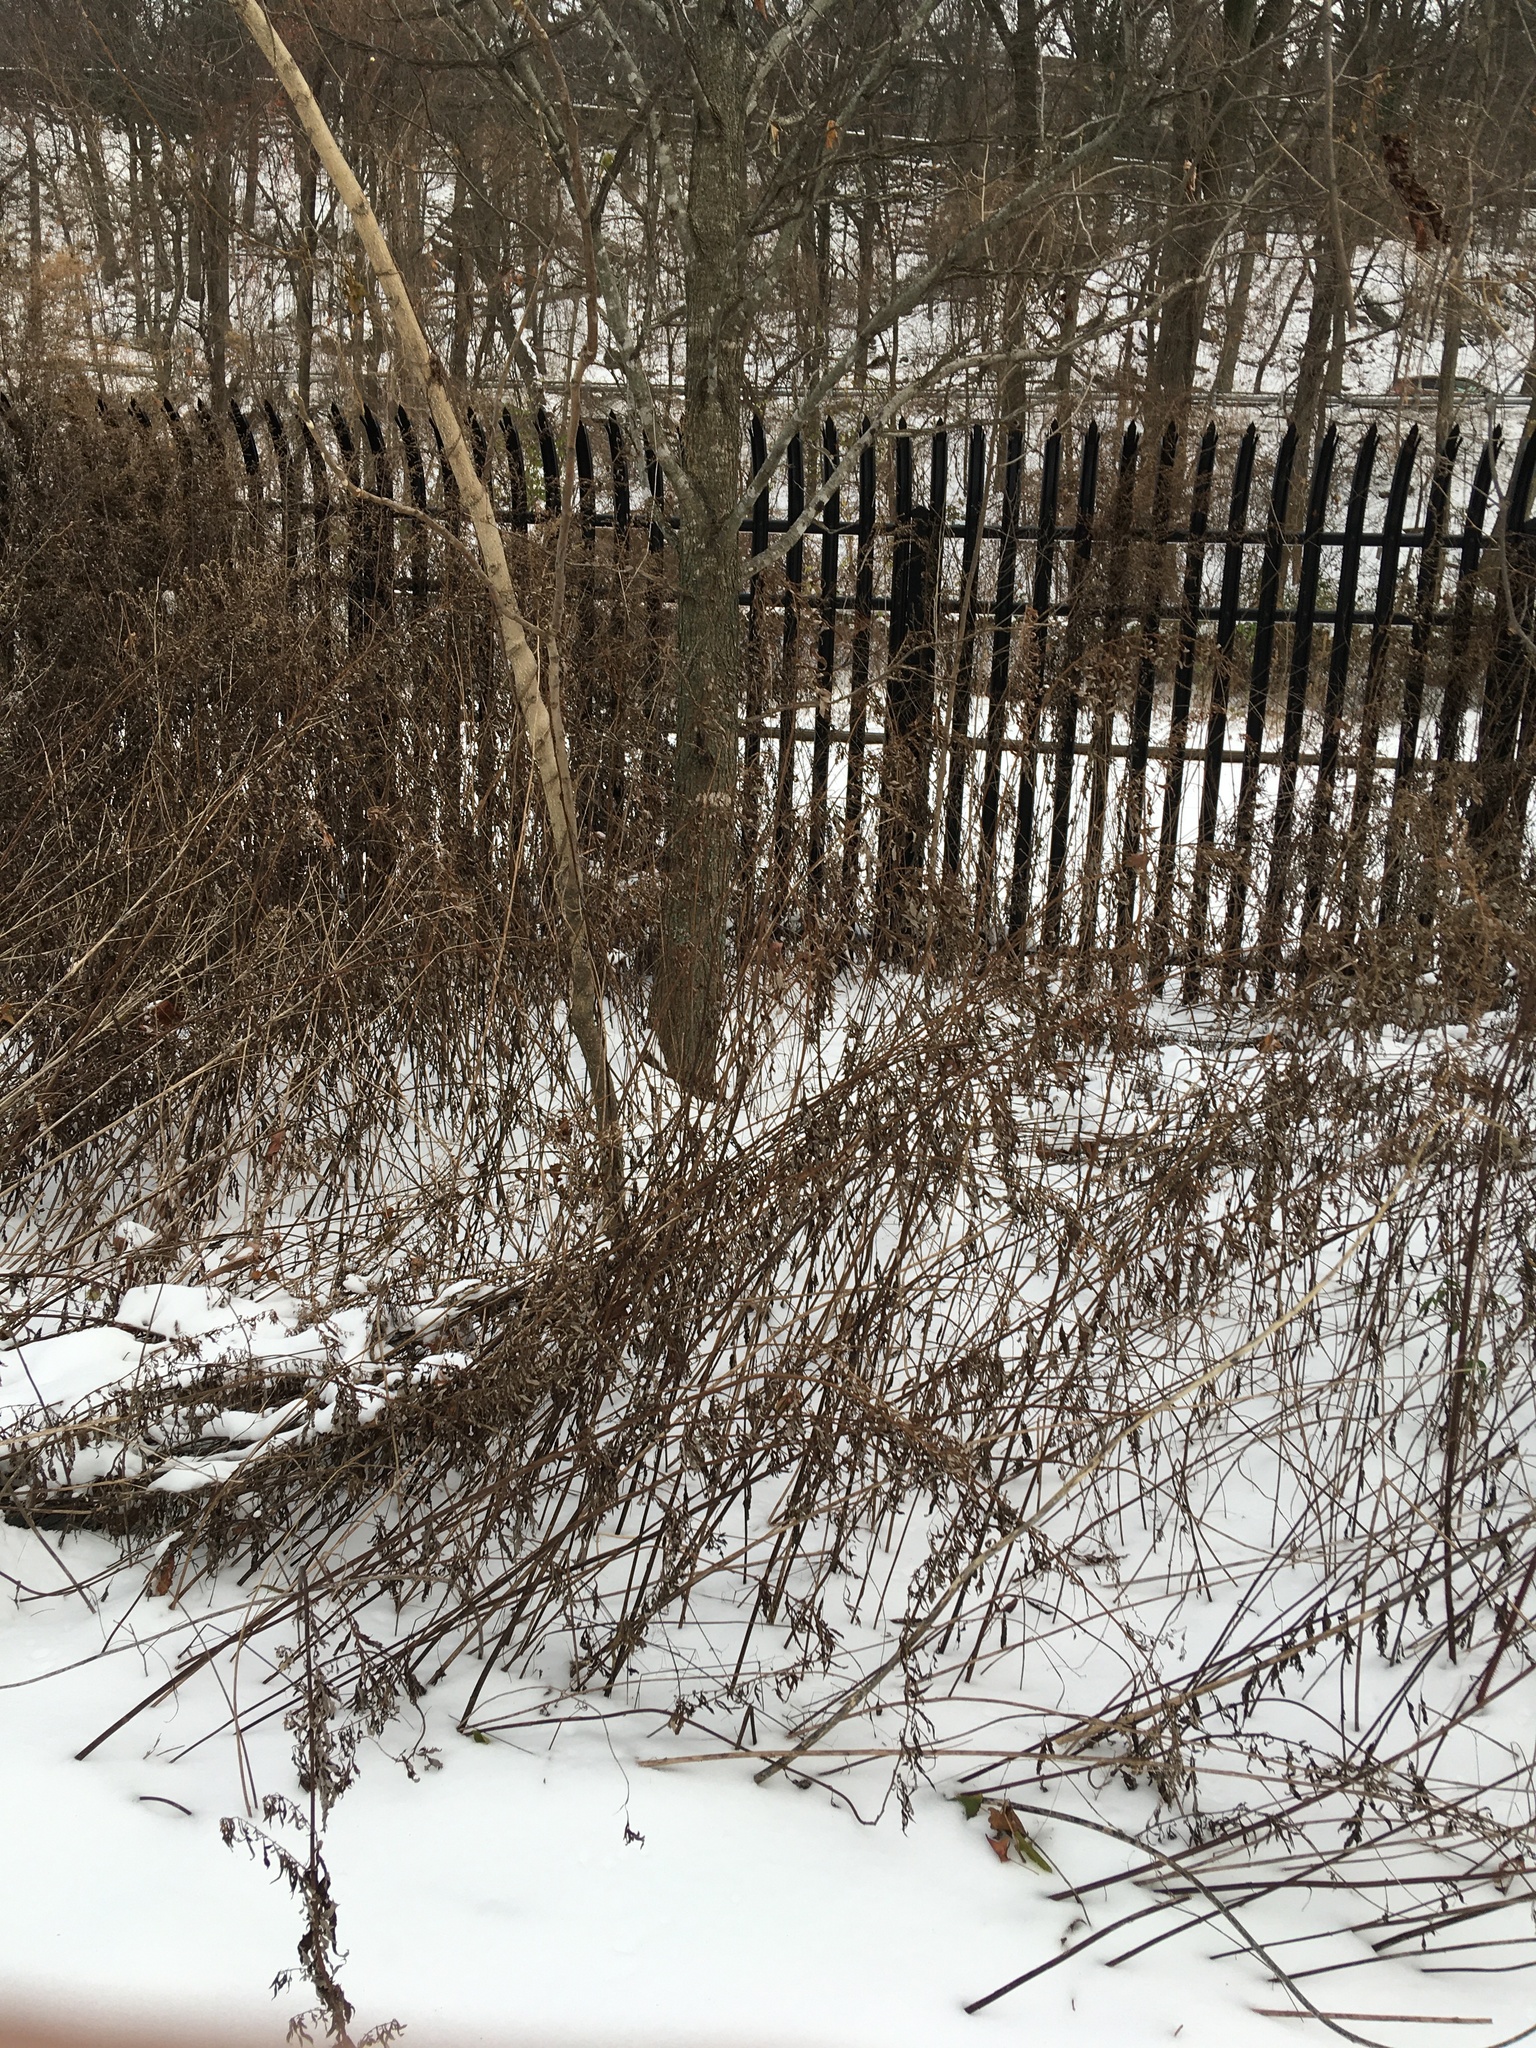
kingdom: Plantae
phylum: Tracheophyta
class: Magnoliopsida
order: Asterales
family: Asteraceae
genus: Artemisia
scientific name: Artemisia vulgaris
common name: Mugwort
